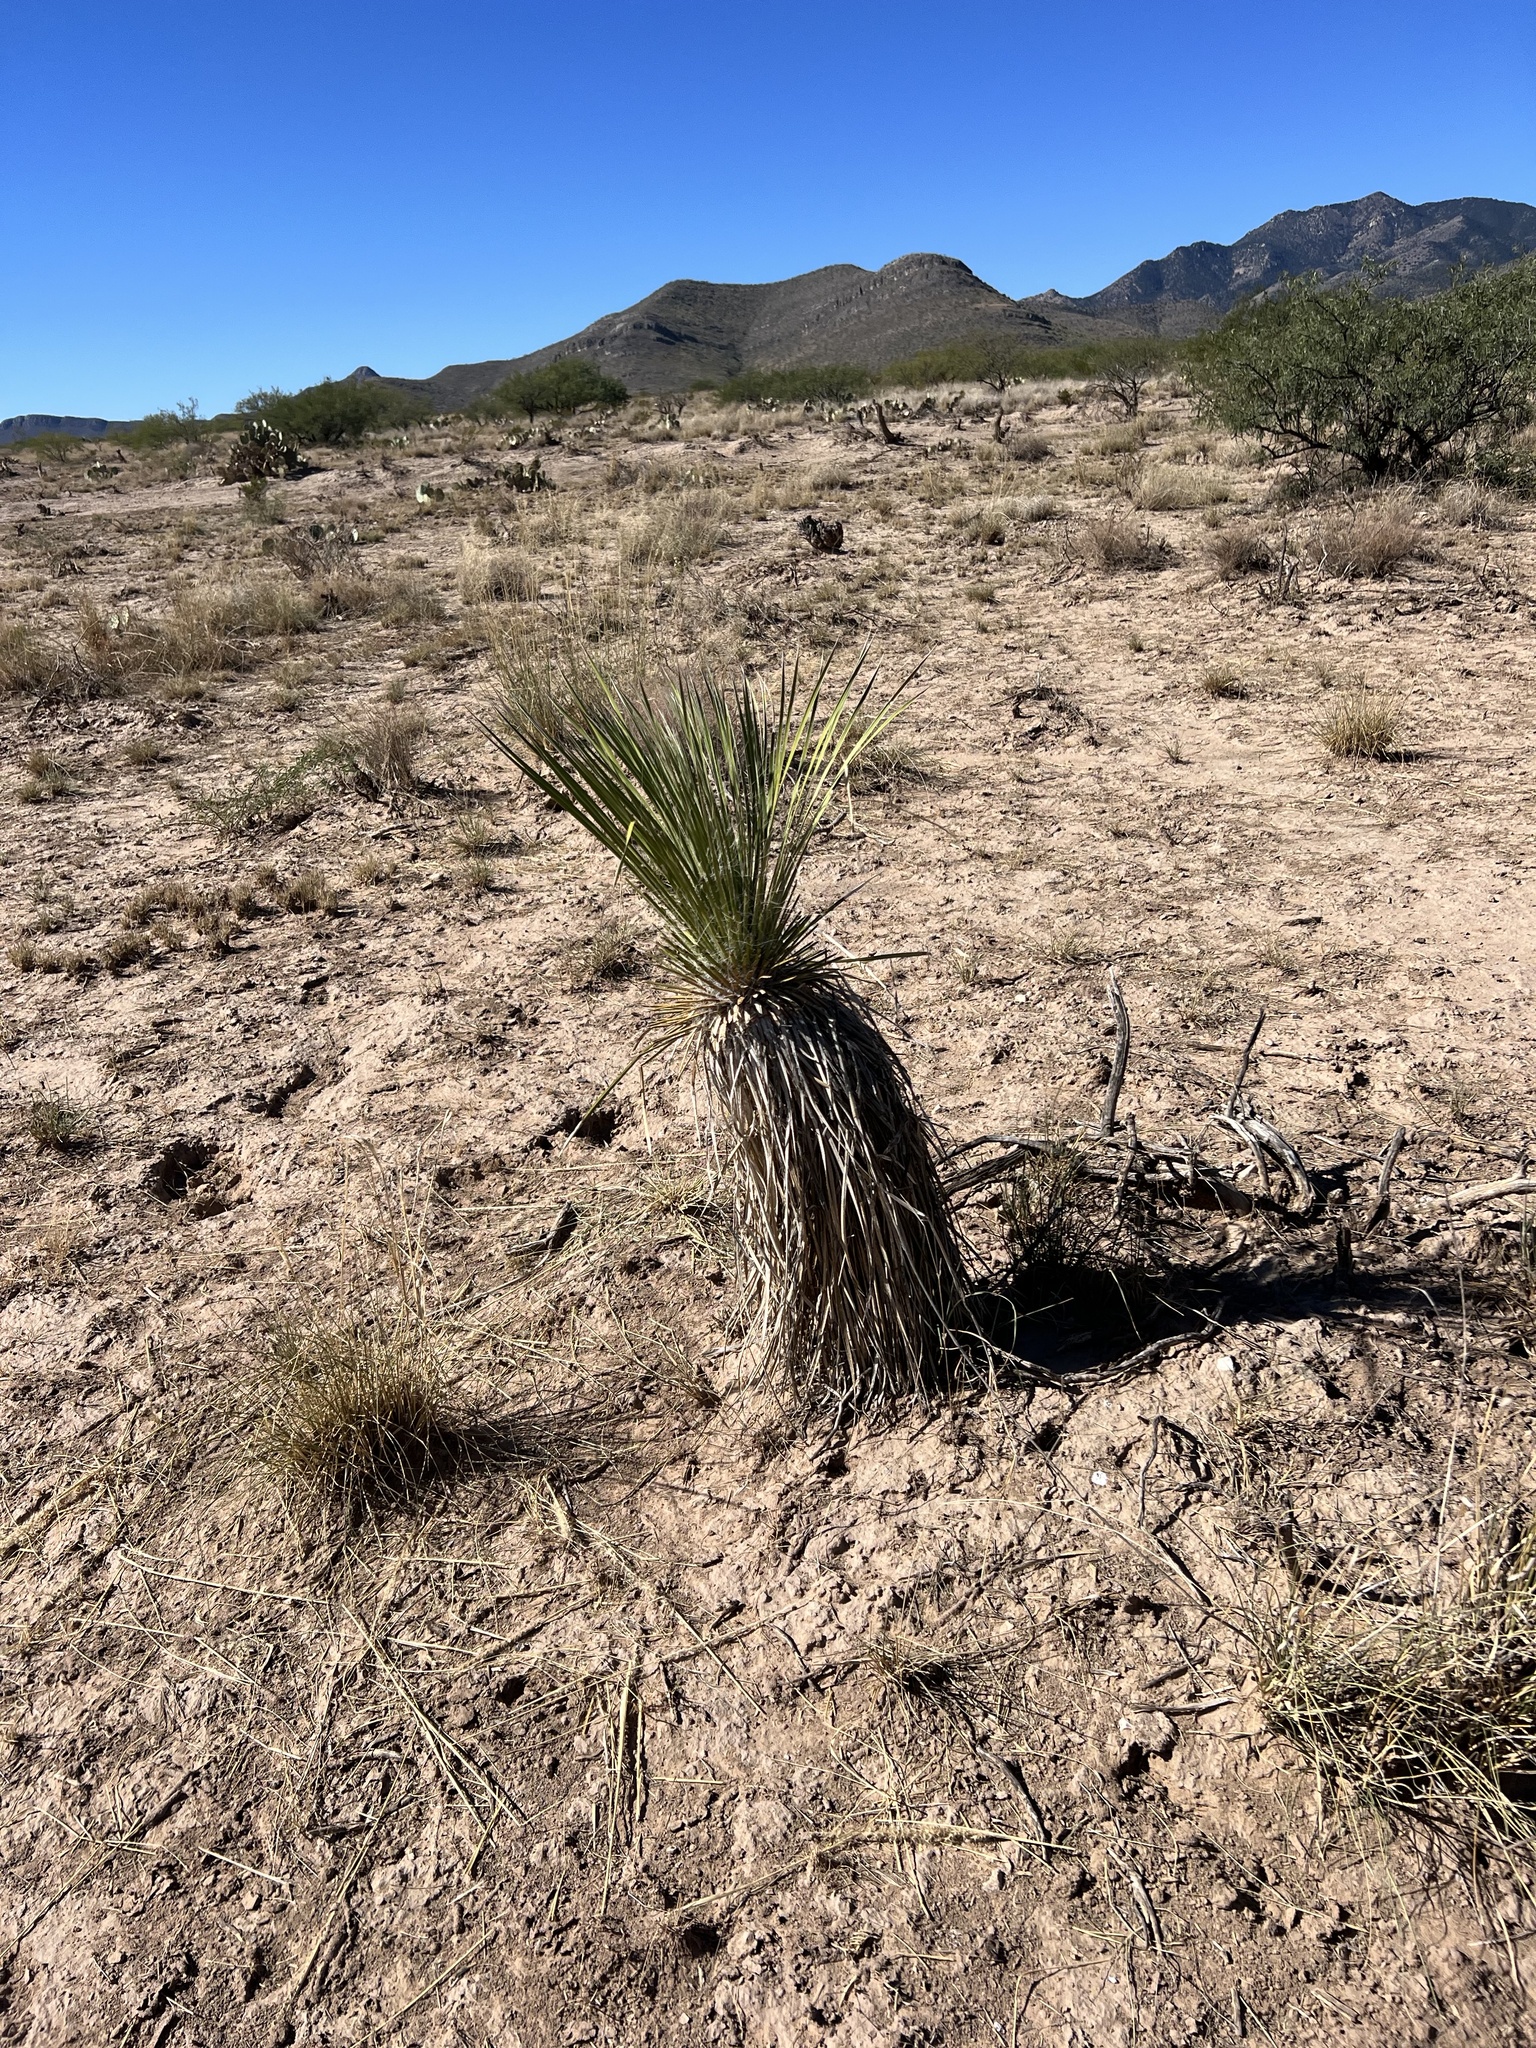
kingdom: Plantae
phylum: Tracheophyta
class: Liliopsida
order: Asparagales
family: Asparagaceae
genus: Yucca
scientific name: Yucca elata
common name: Palmella
